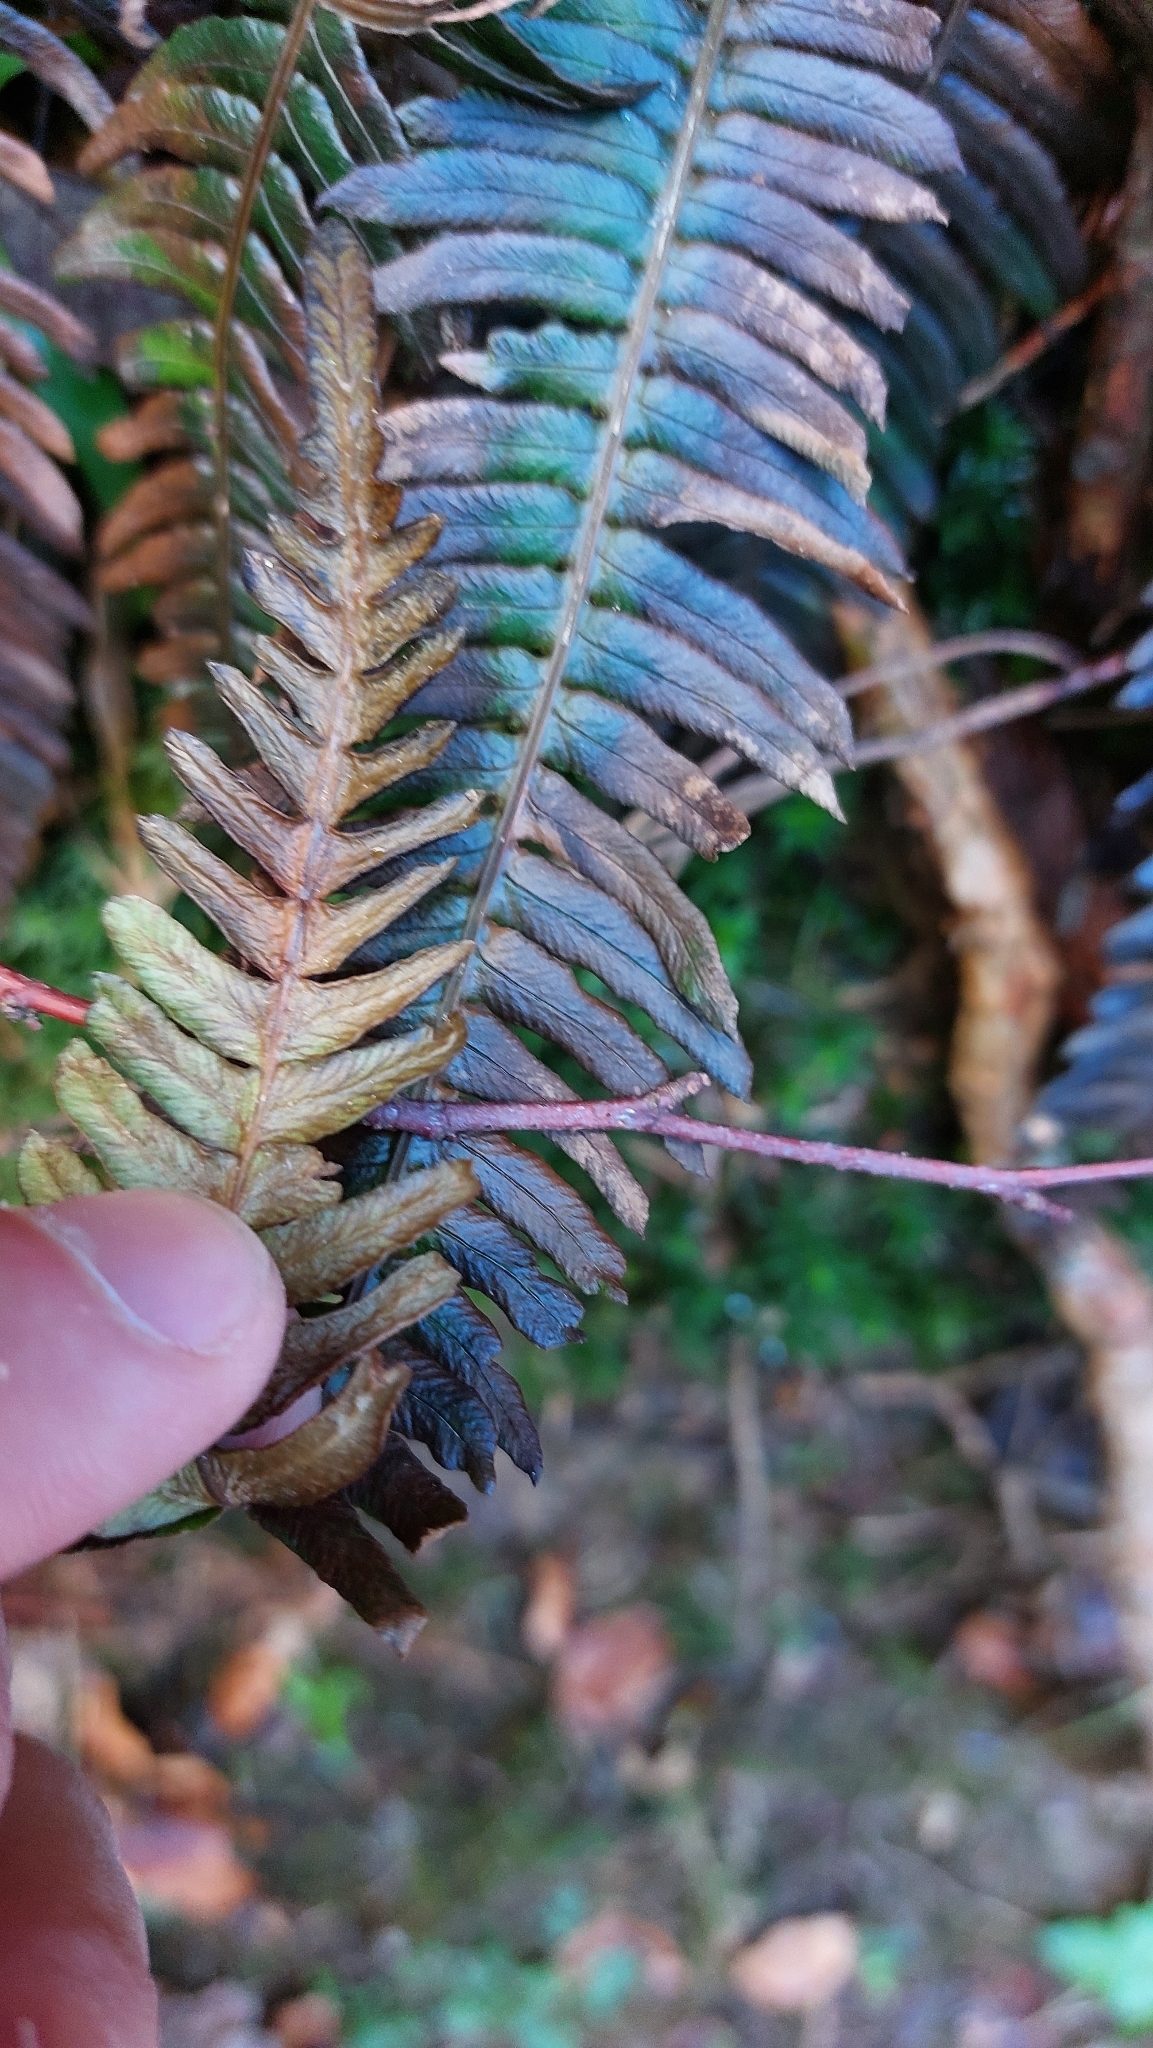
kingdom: Plantae
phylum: Tracheophyta
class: Polypodiopsida
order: Polypodiales
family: Blechnaceae
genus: Struthiopteris
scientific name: Struthiopteris spicant
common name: Deer fern
